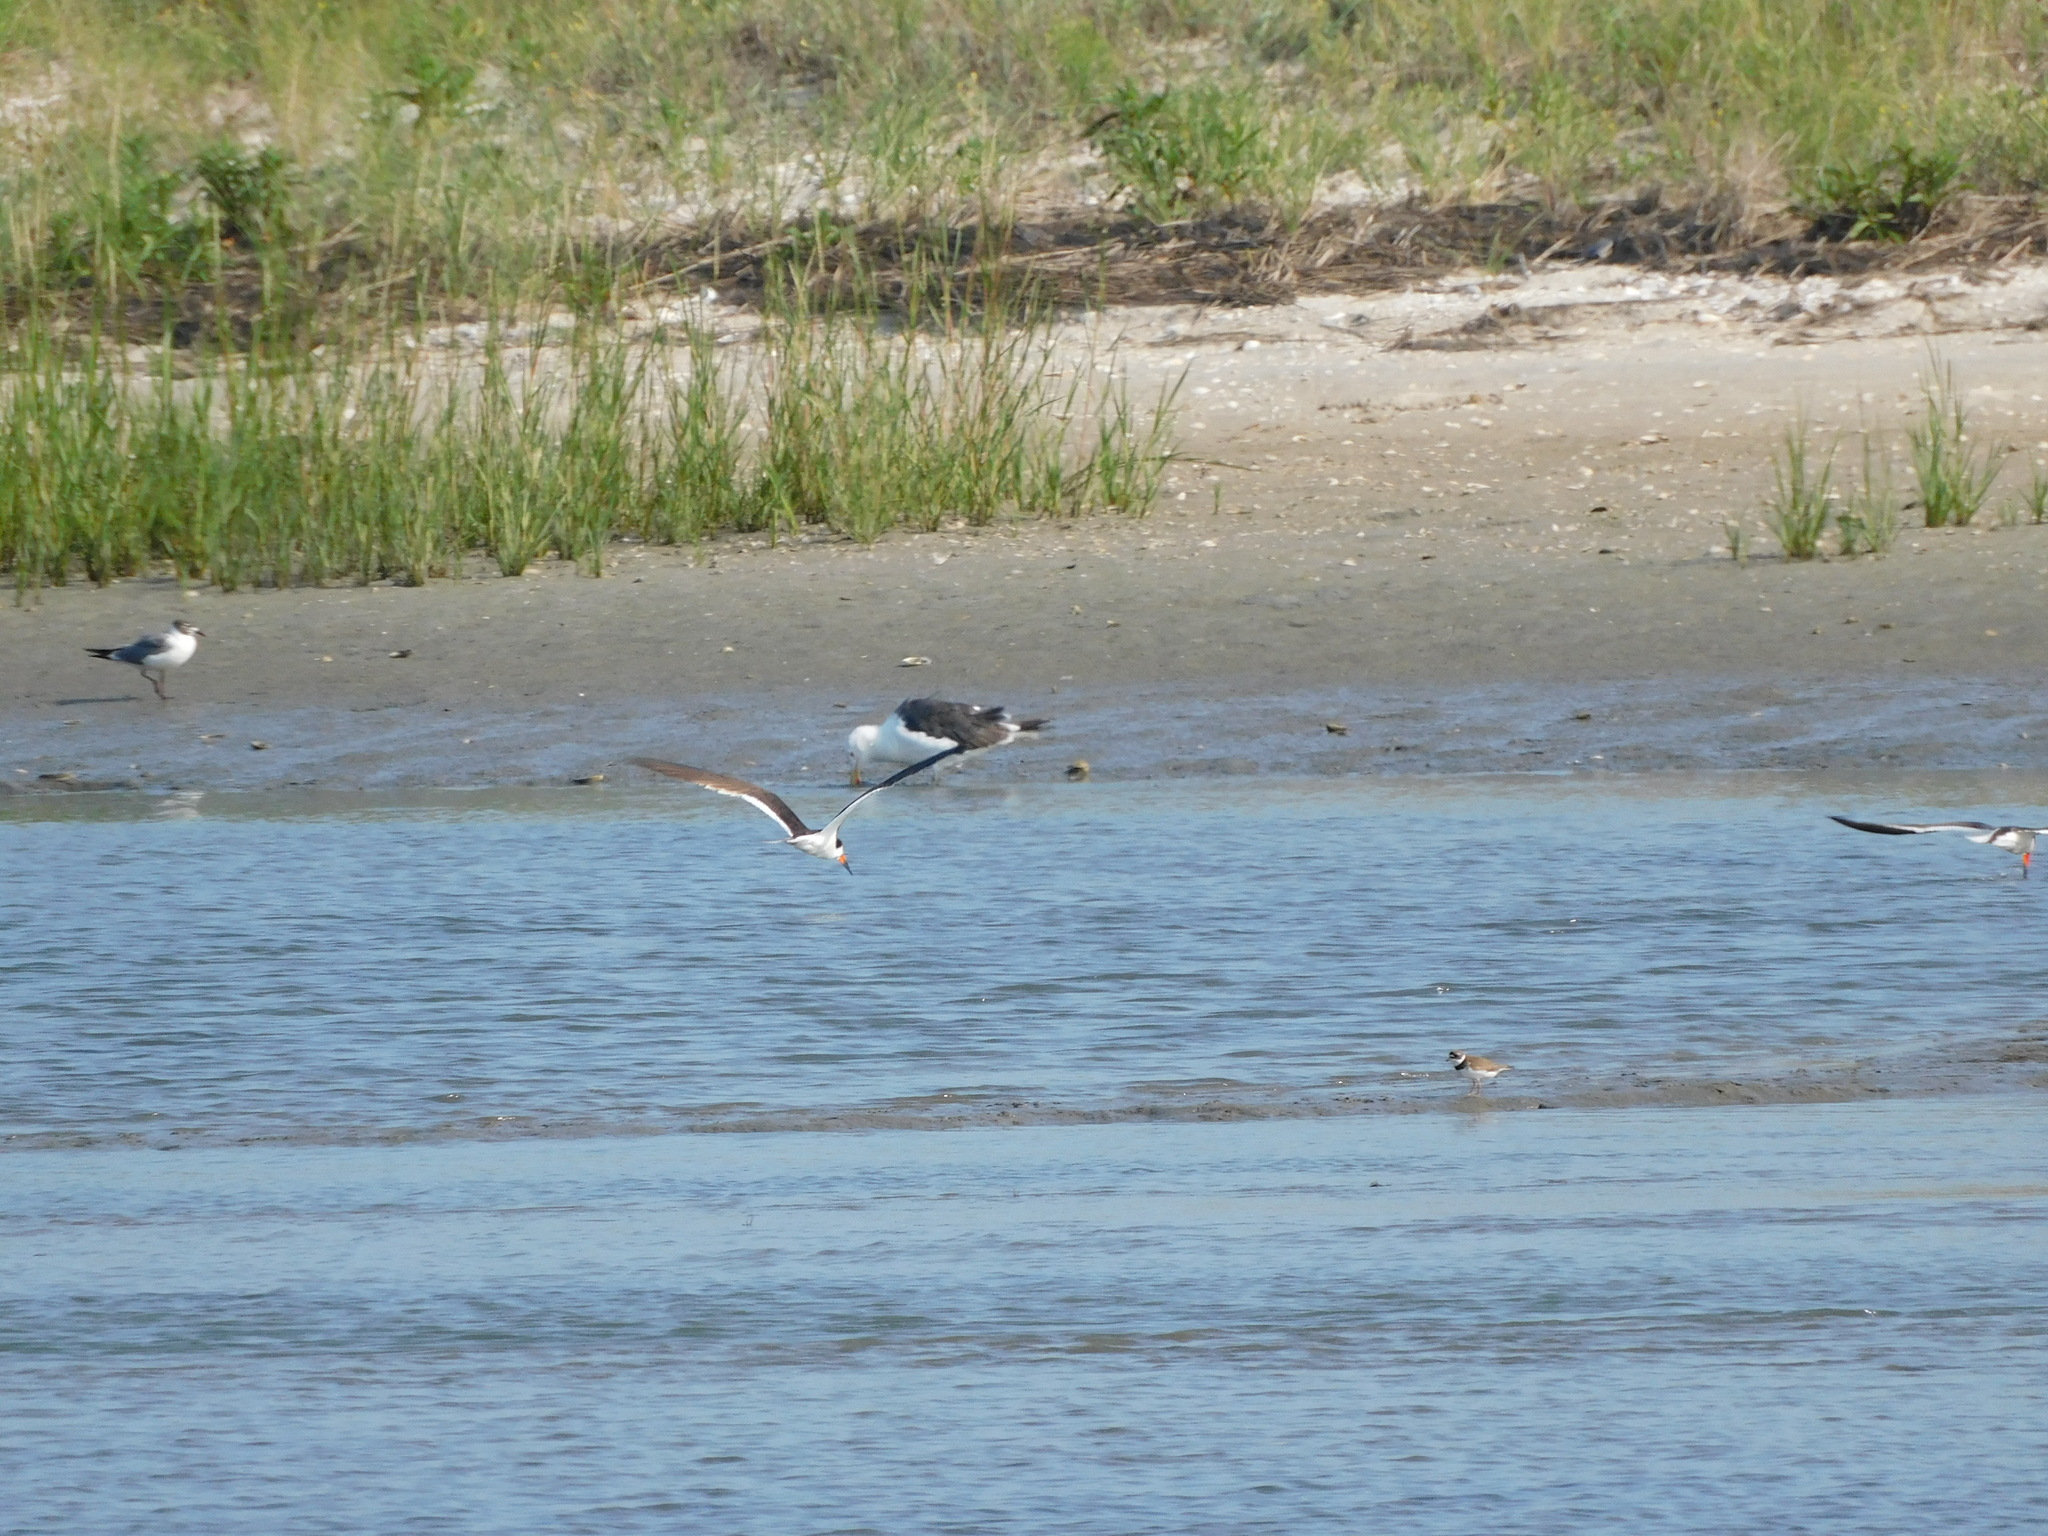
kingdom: Animalia
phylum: Chordata
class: Aves
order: Charadriiformes
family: Laridae
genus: Rynchops
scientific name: Rynchops niger
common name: Black skimmer
